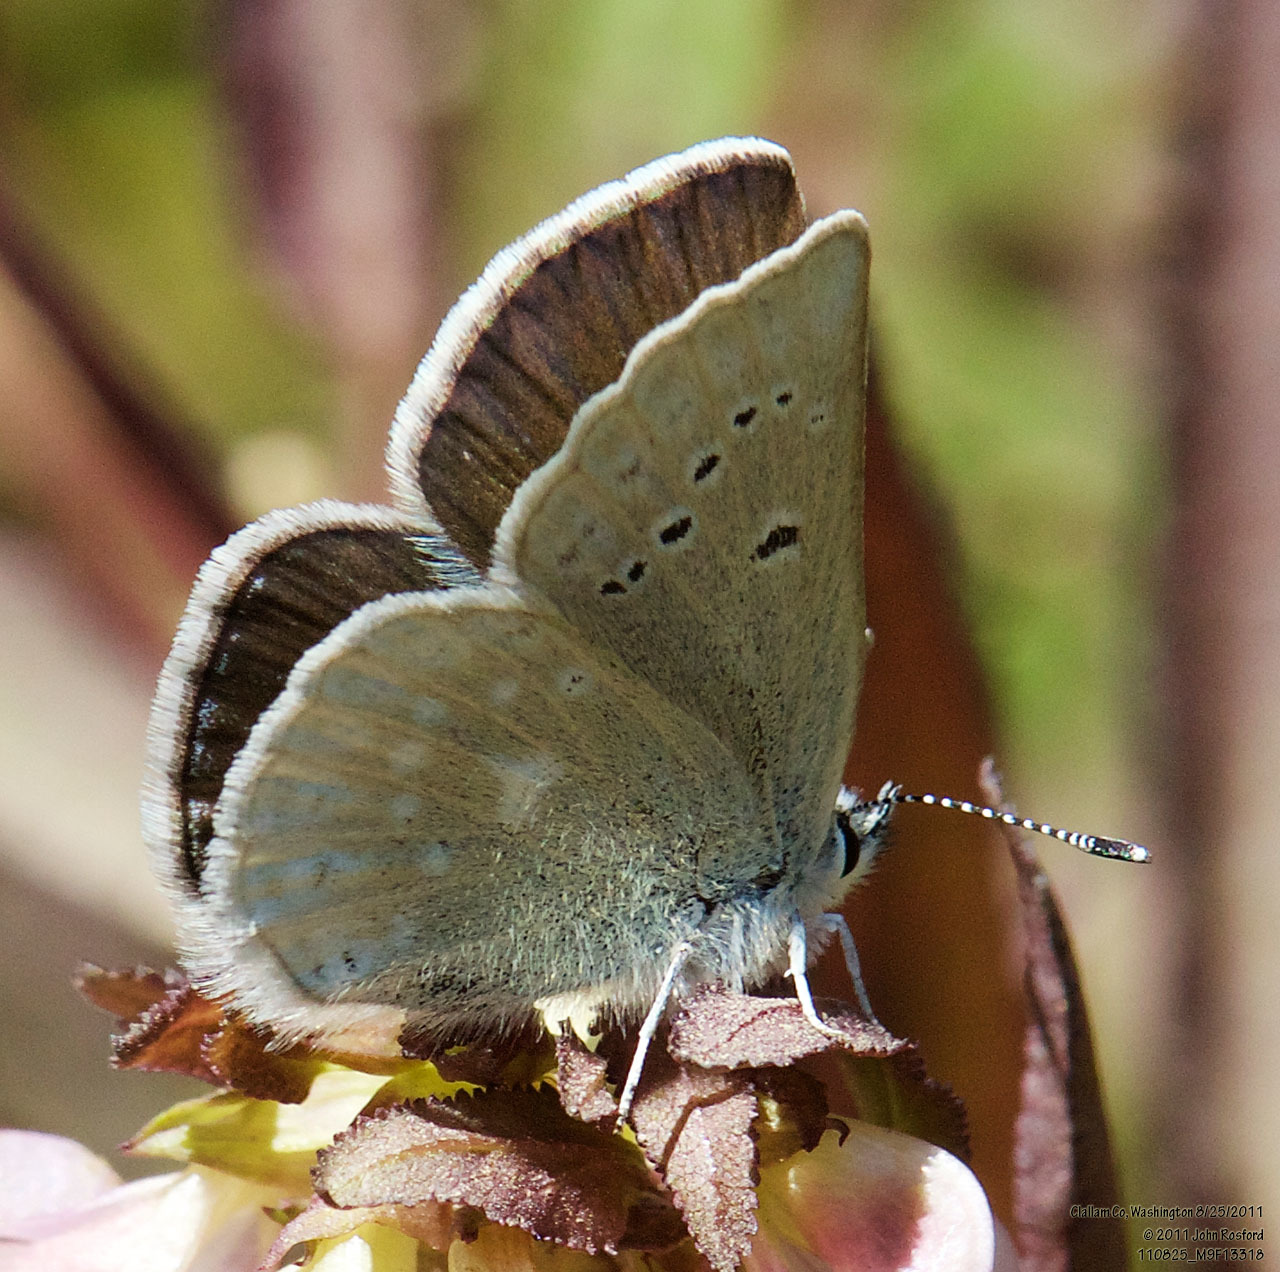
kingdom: Animalia
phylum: Arthropoda
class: Insecta
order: Lepidoptera
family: Lycaenidae
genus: Icaricia
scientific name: Icaricia icarioides
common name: Boisduval's blue
